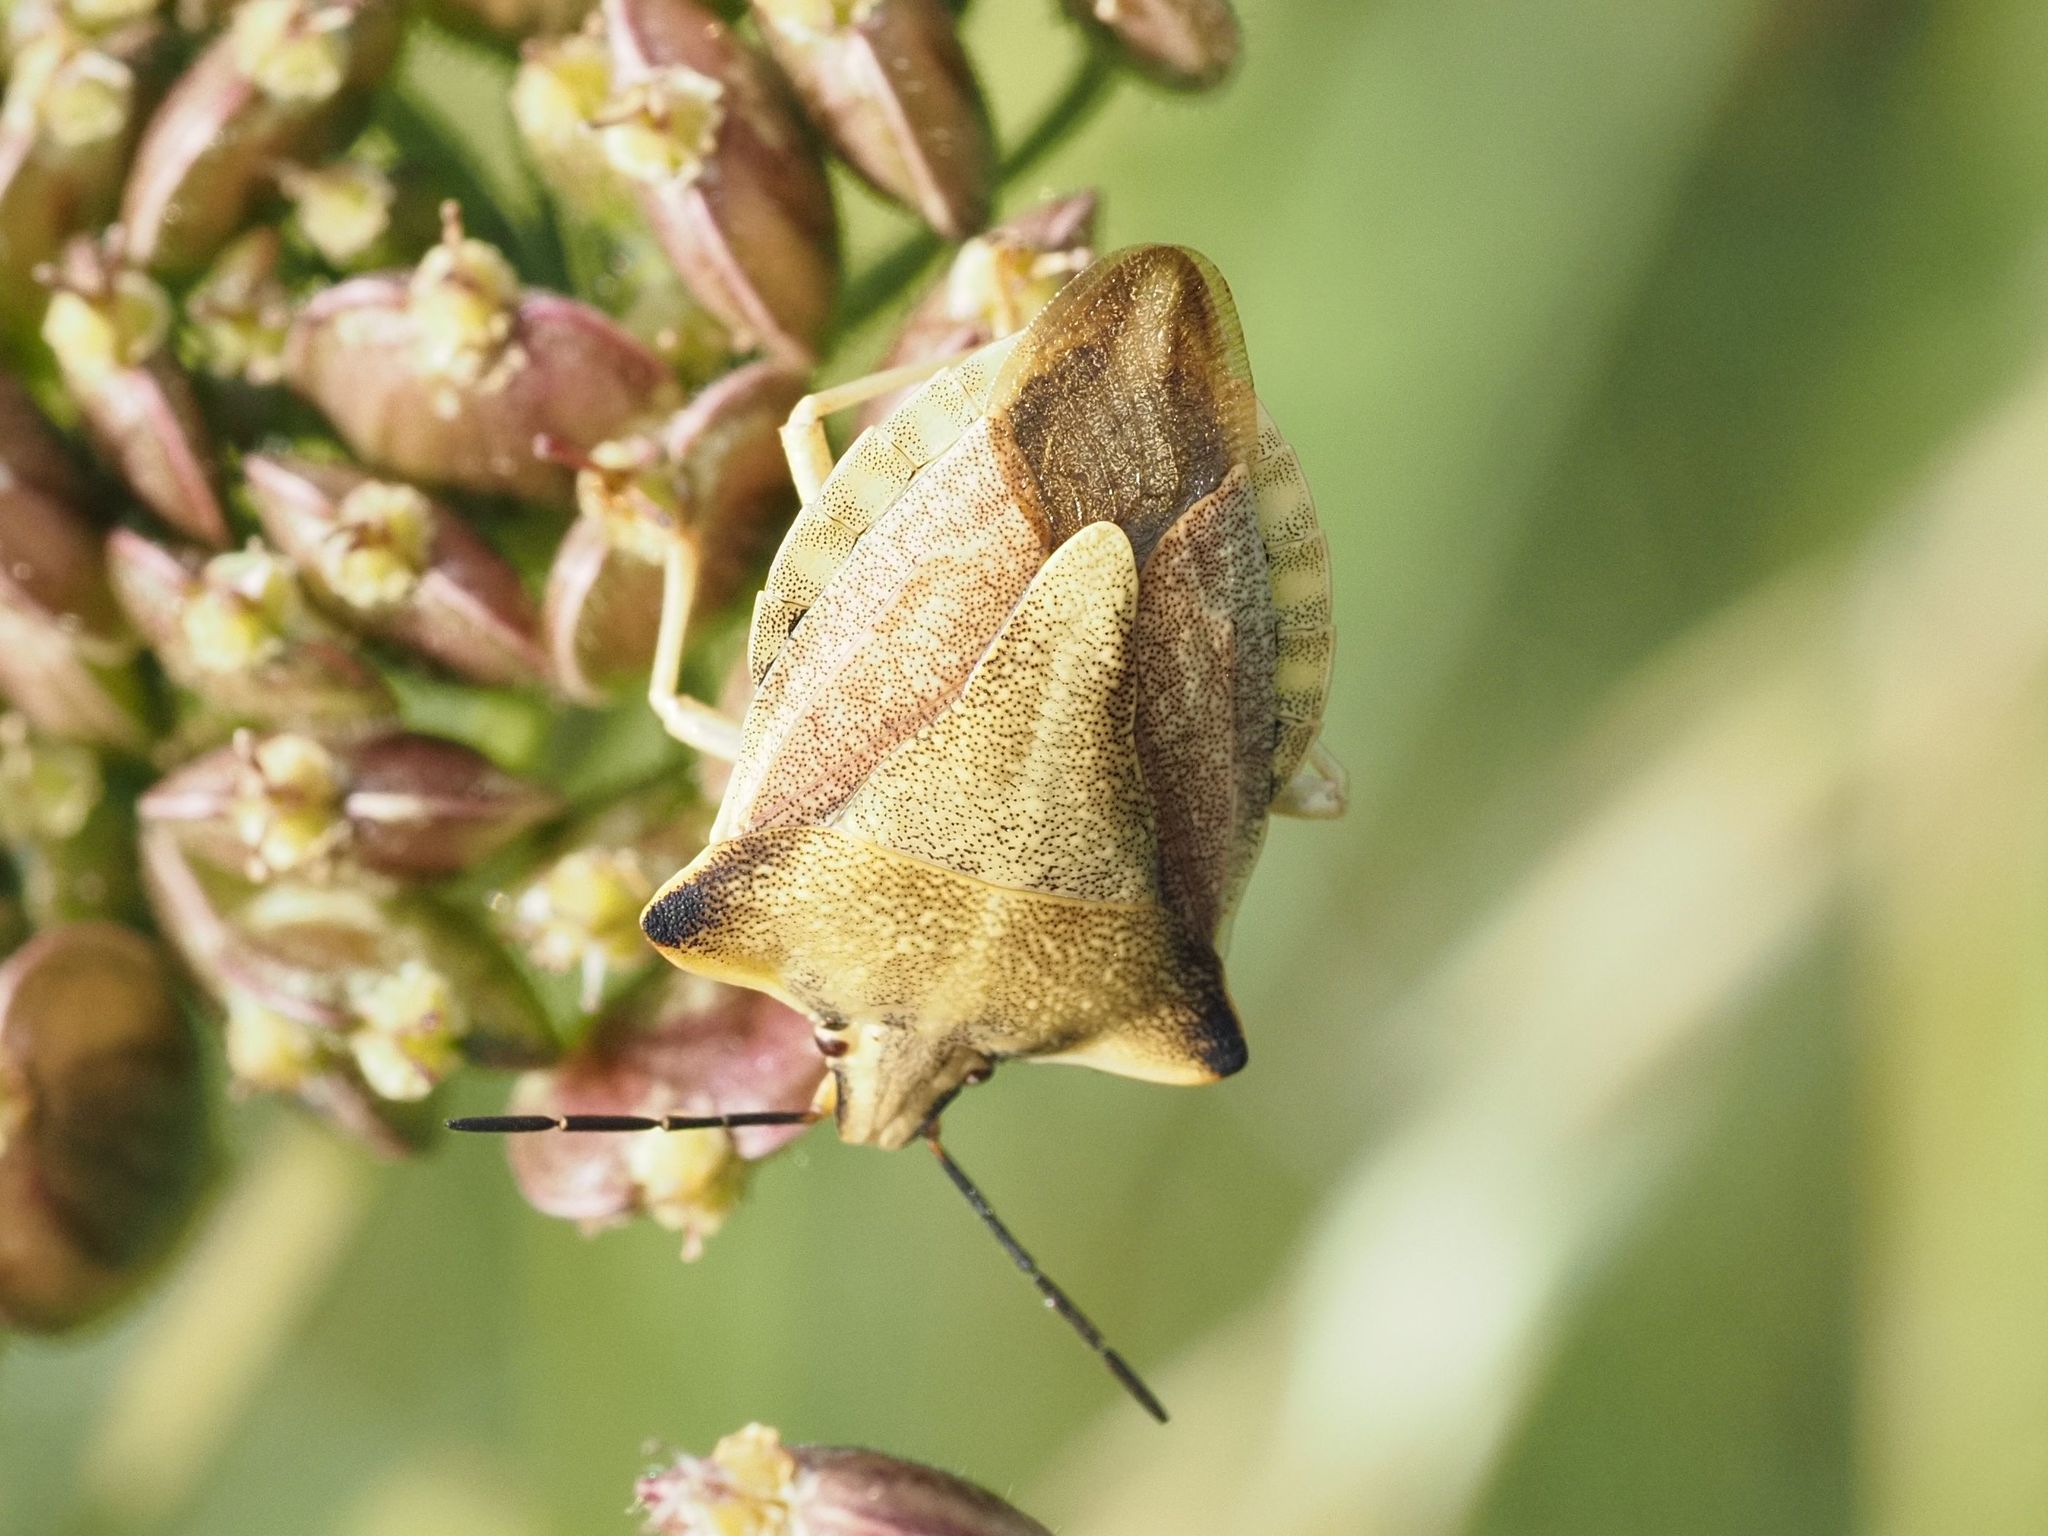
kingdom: Animalia
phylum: Arthropoda
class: Insecta
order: Hemiptera
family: Pentatomidae
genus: Carpocoris
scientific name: Carpocoris fuscispinus
